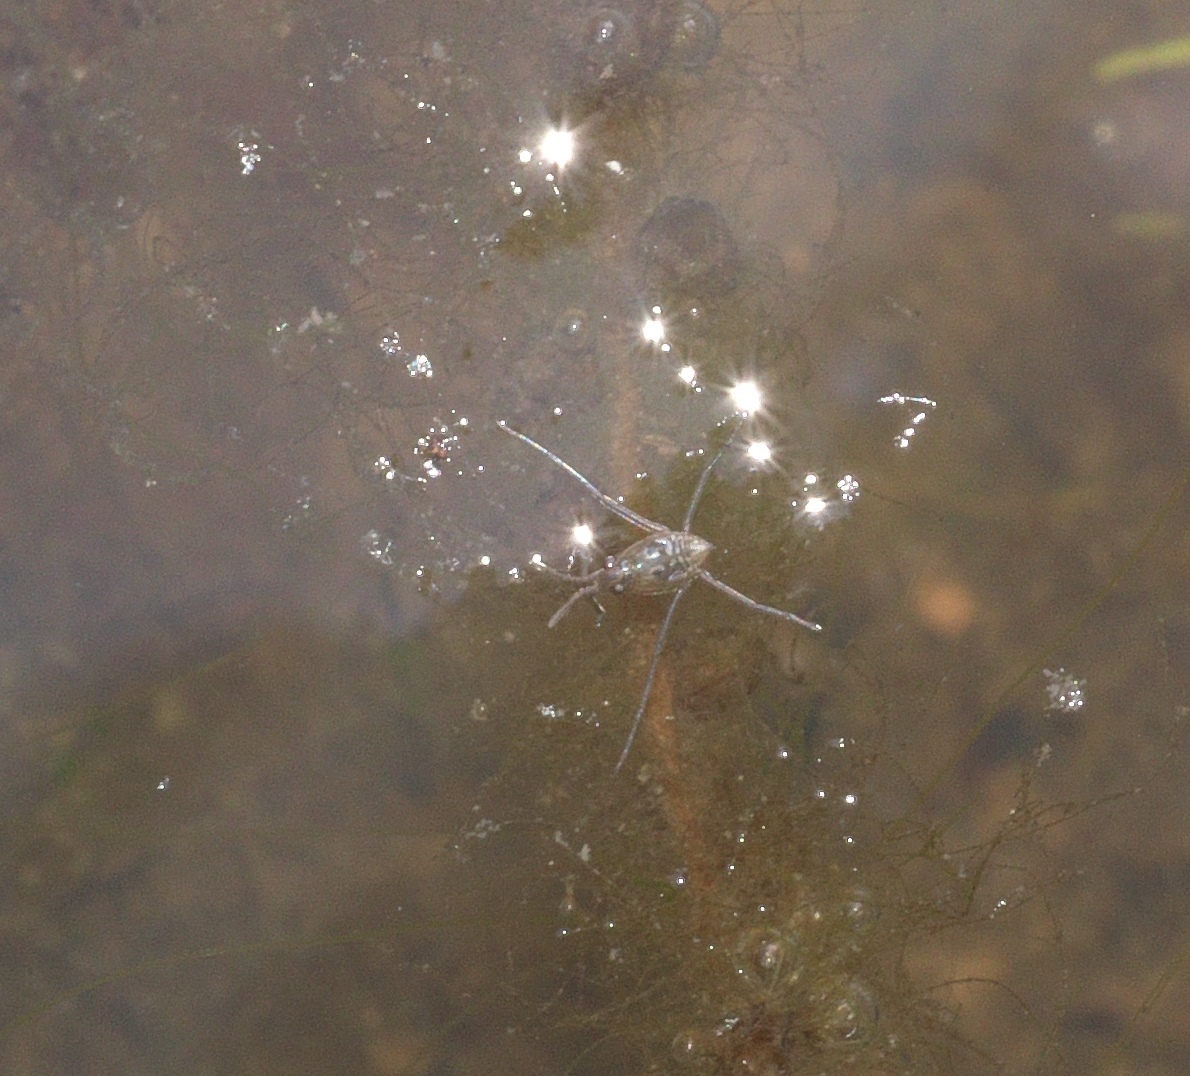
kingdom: Animalia
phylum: Arthropoda
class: Insecta
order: Hemiptera
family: Gerridae
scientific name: Gerridae
